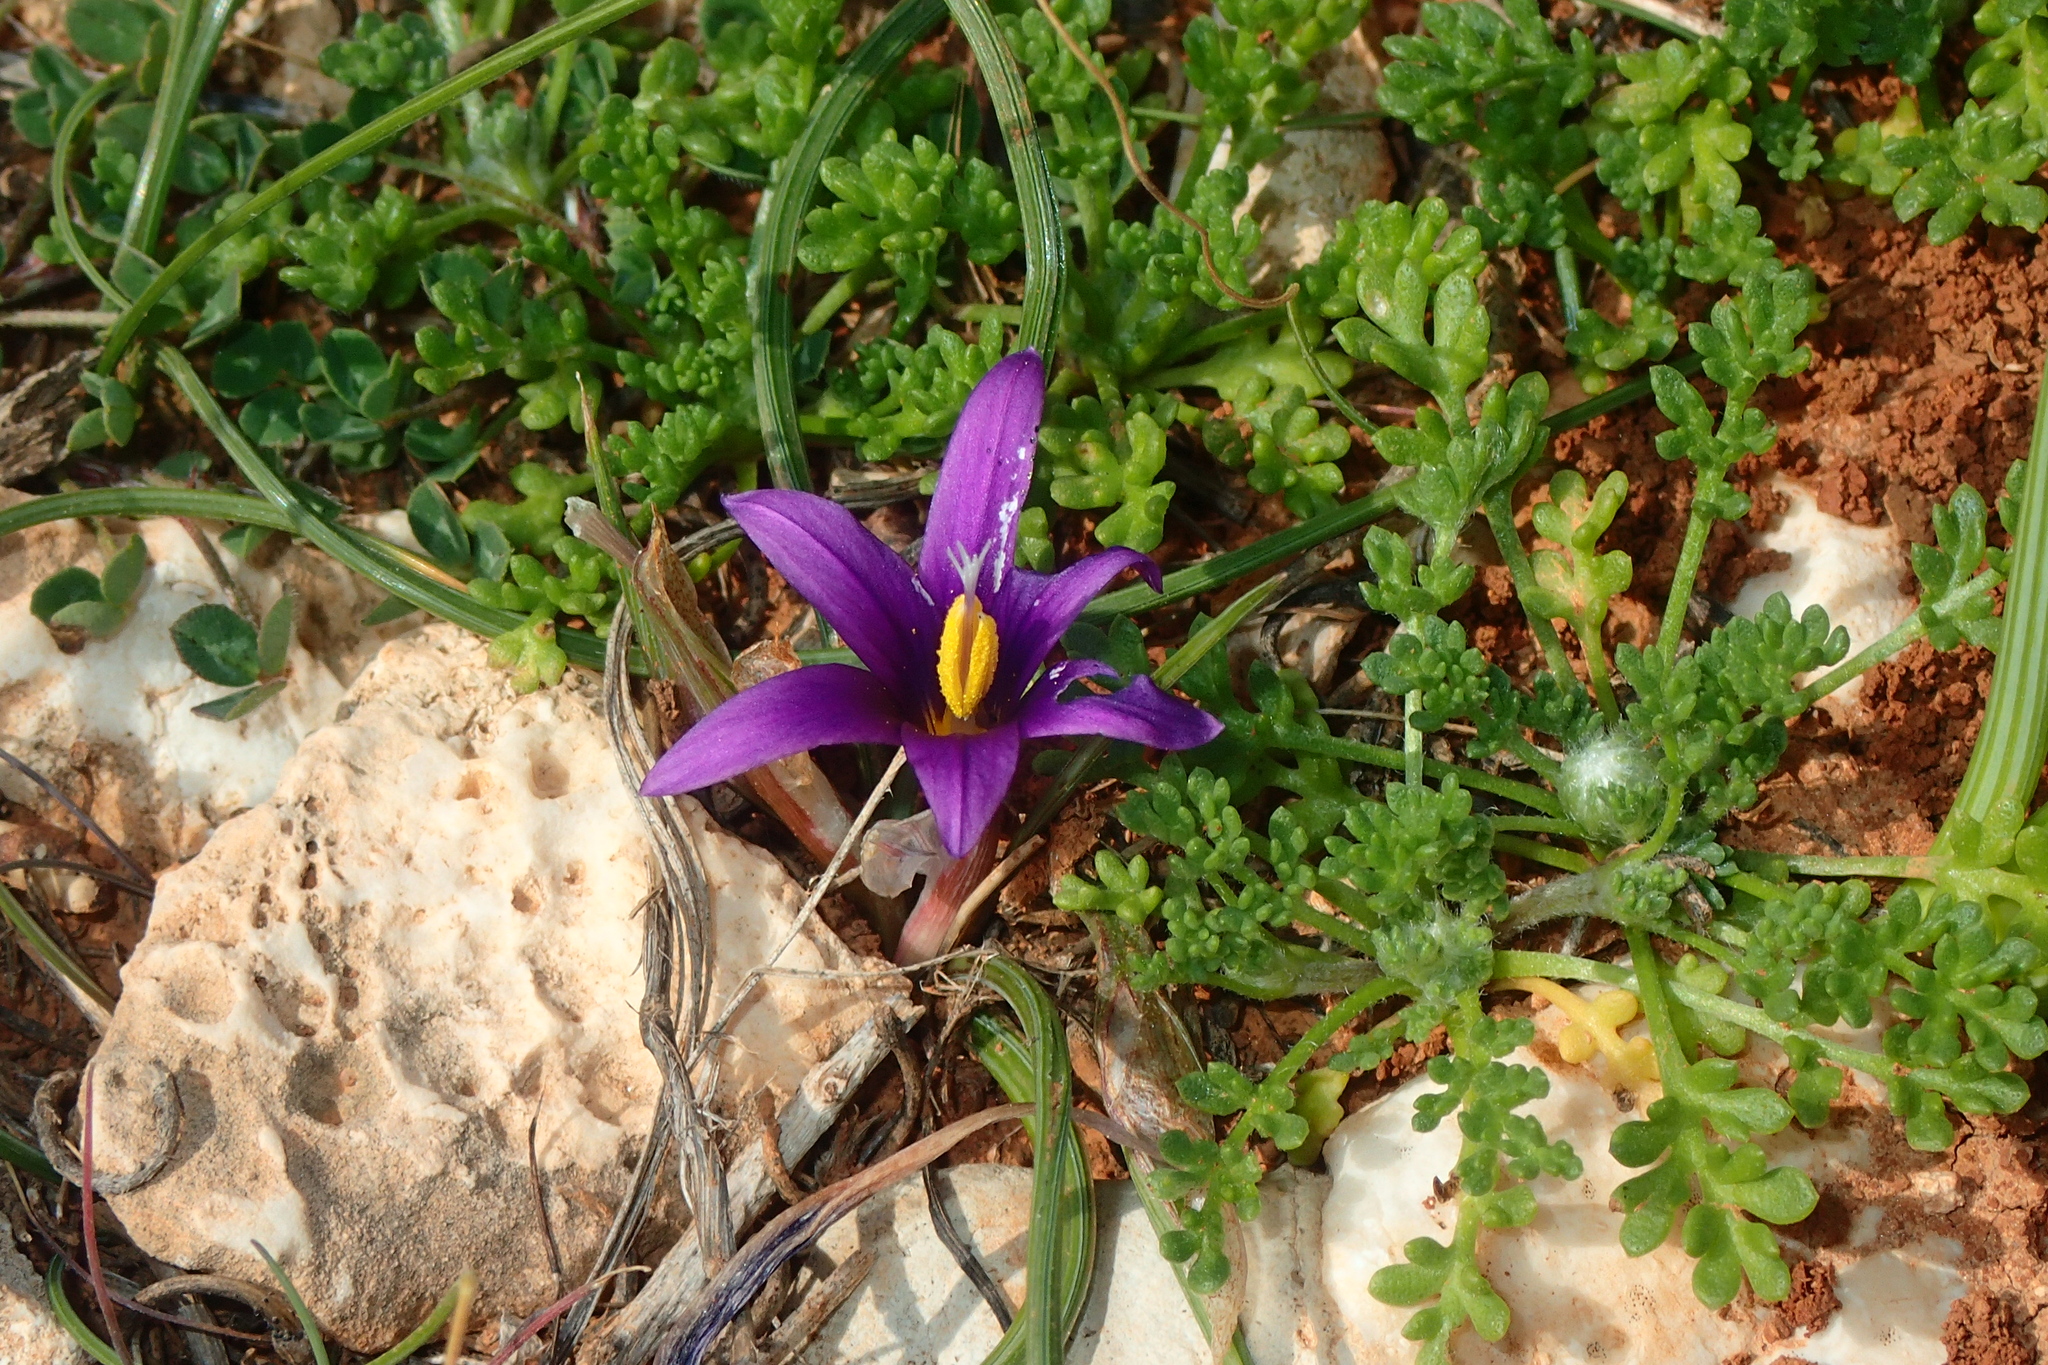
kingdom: Plantae
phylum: Tracheophyta
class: Liliopsida
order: Asparagales
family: Iridaceae
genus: Romulea
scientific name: Romulea tempskyana
